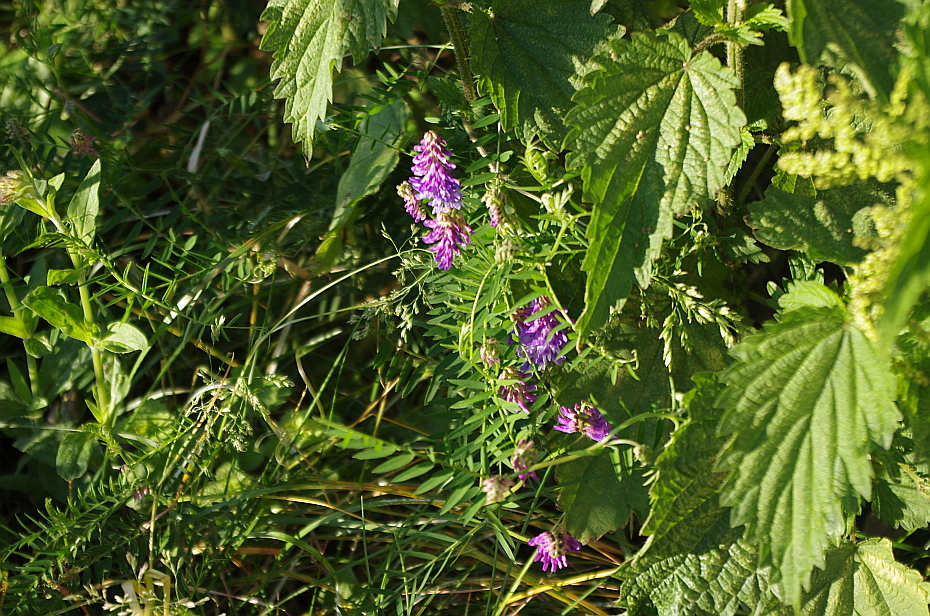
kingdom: Plantae
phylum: Tracheophyta
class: Magnoliopsida
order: Fabales
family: Fabaceae
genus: Vicia
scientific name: Vicia cracca
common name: Bird vetch
